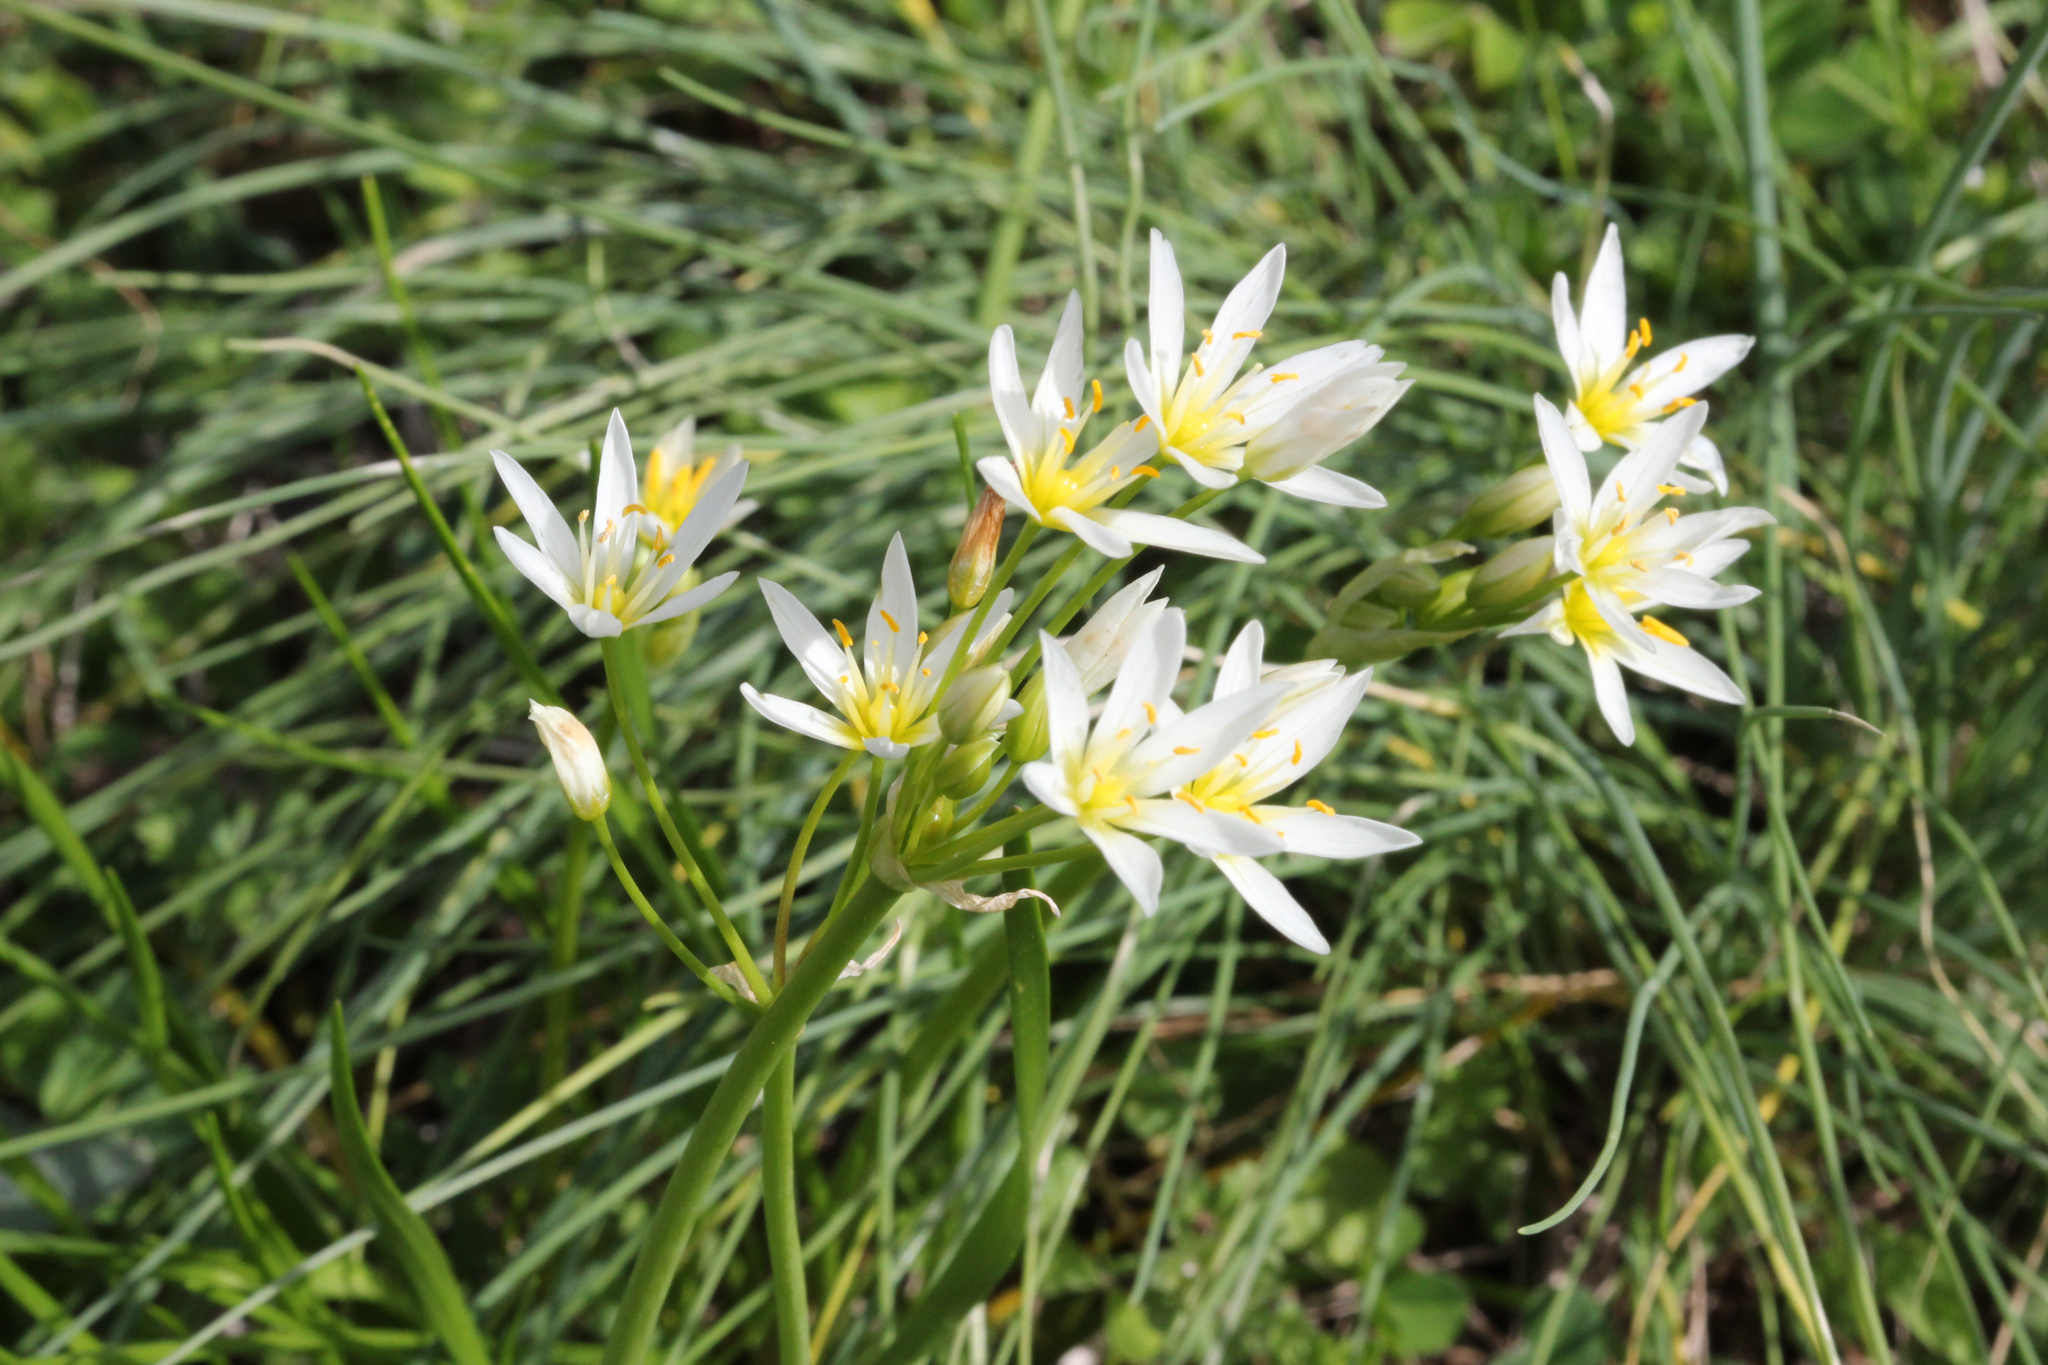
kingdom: Plantae
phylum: Tracheophyta
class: Liliopsida
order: Asparagales
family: Amaryllidaceae
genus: Nothoscordum
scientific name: Nothoscordum bivalve
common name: Crow-poison
